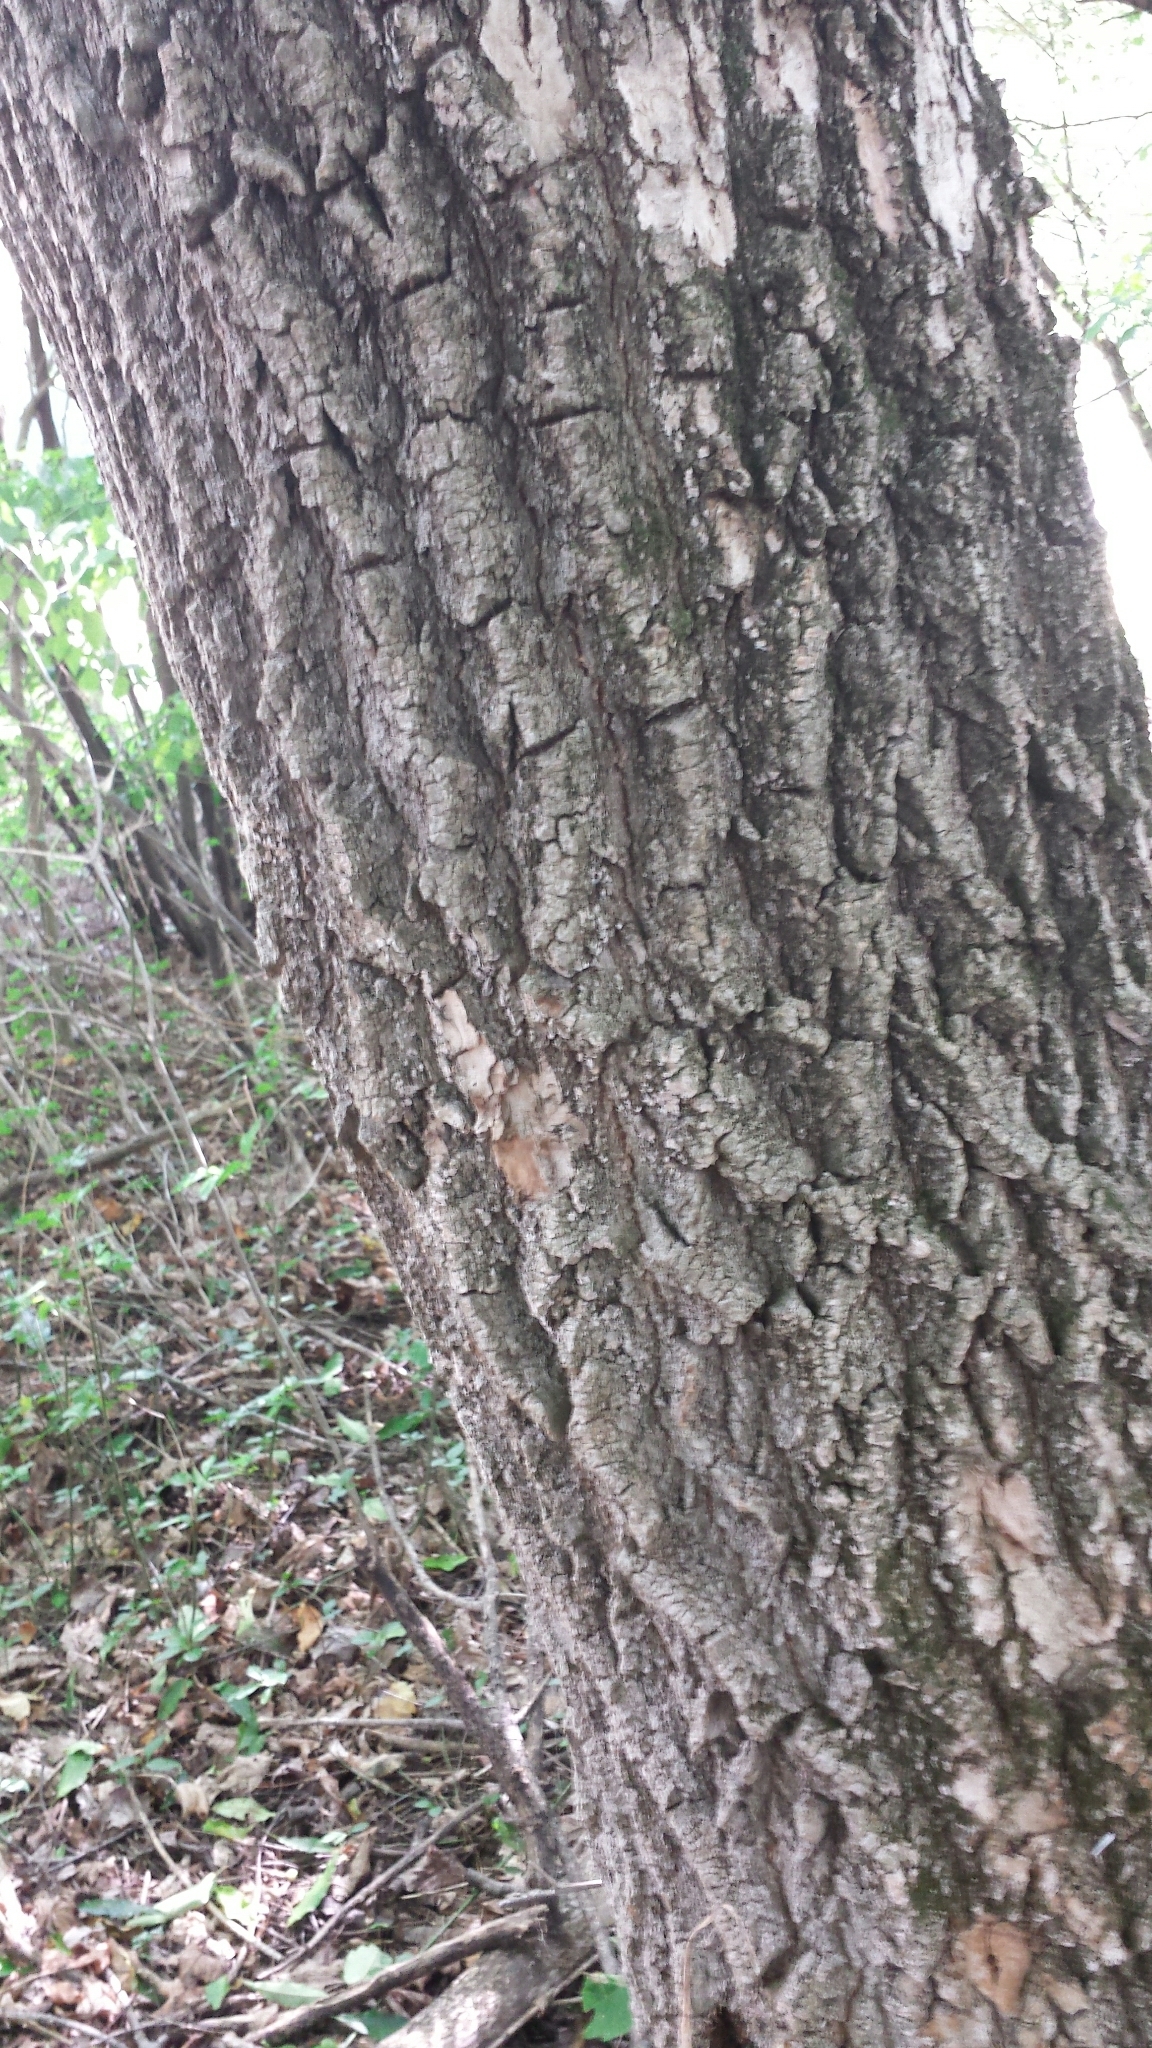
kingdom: Plantae
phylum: Tracheophyta
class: Magnoliopsida
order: Sapindales
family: Sapindaceae
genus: Acer
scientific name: Acer negundo
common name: Ashleaf maple
